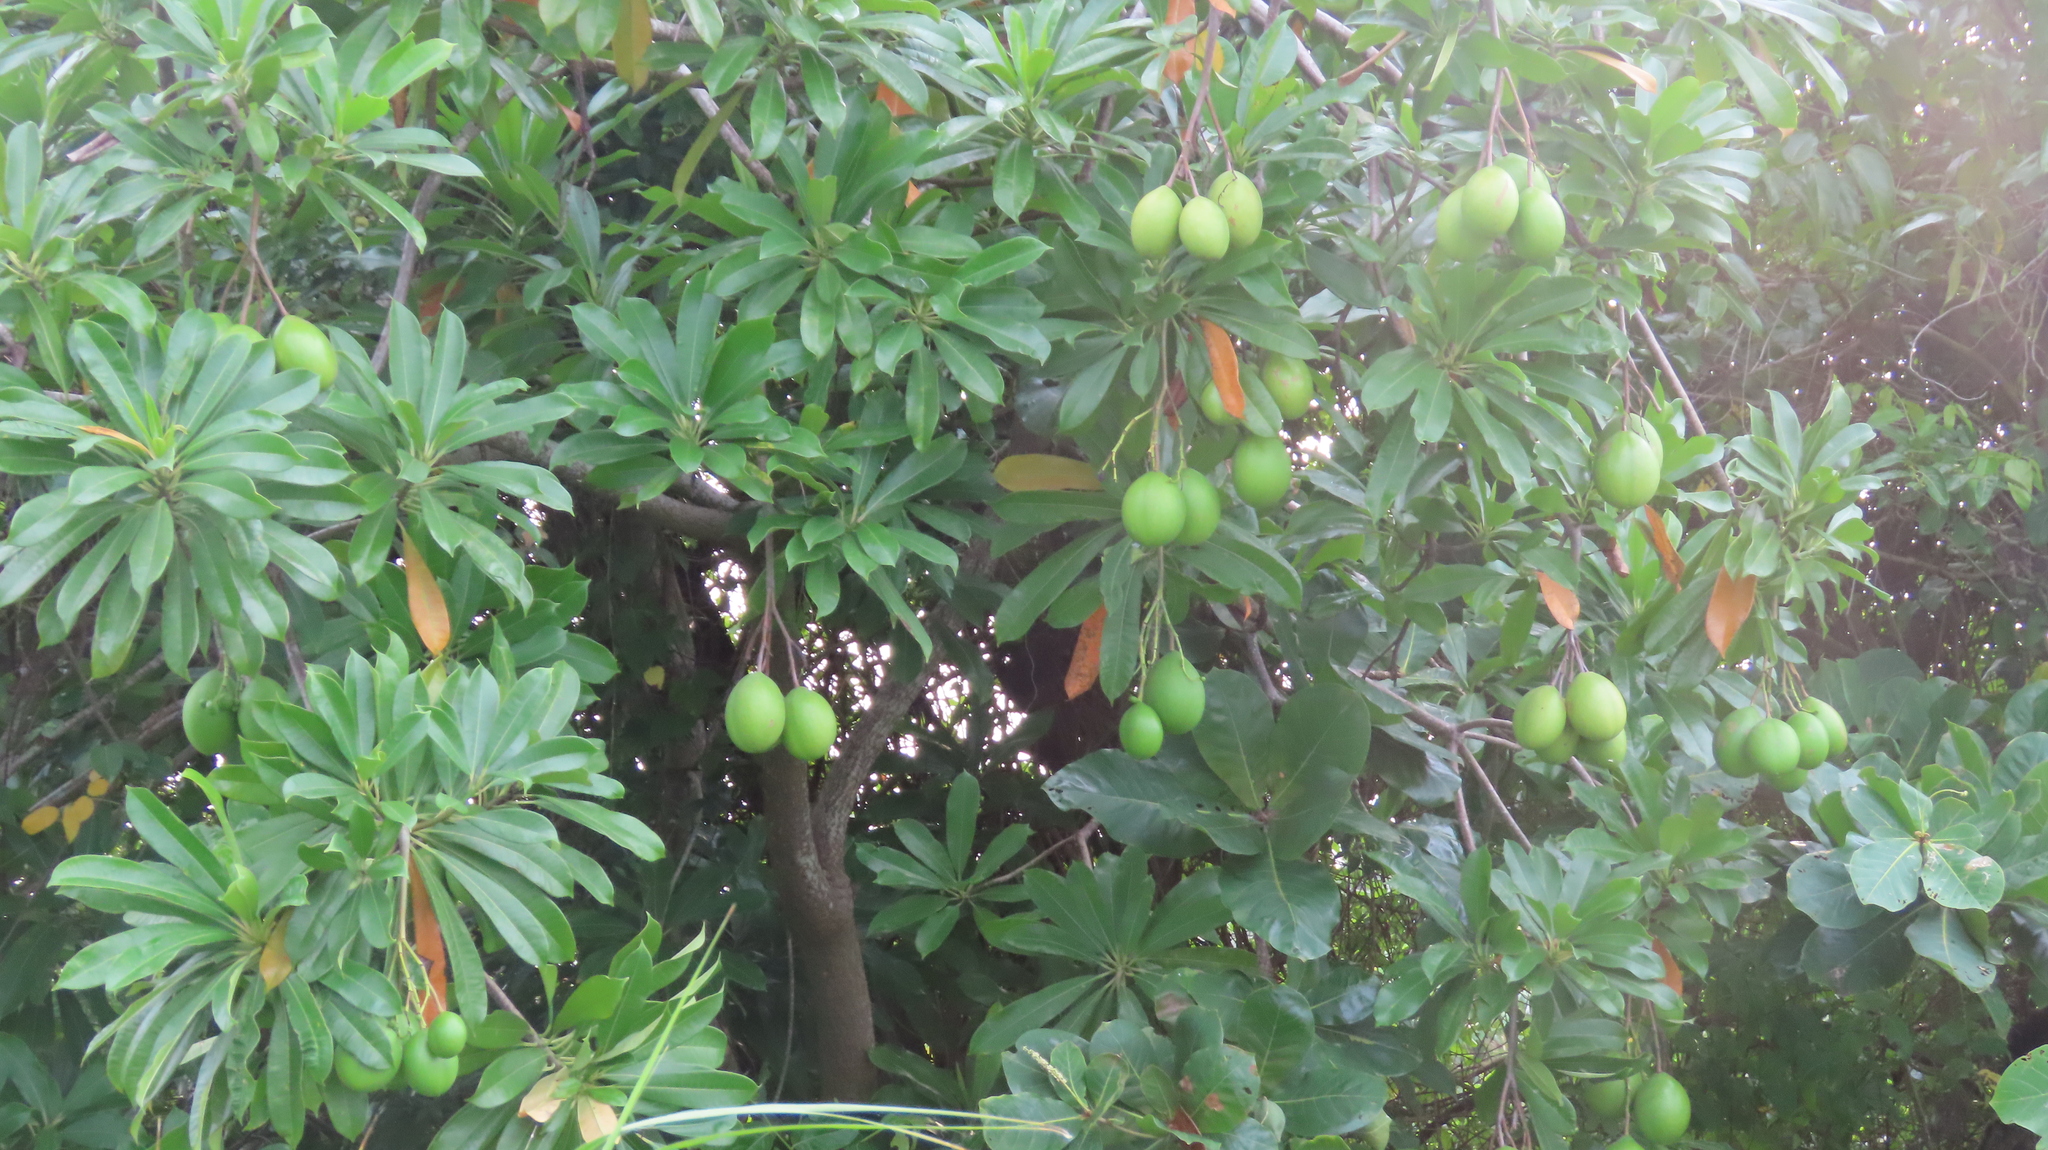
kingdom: Plantae
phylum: Tracheophyta
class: Magnoliopsida
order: Gentianales
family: Apocynaceae
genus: Cerbera
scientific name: Cerbera odollam
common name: Pong-pong
